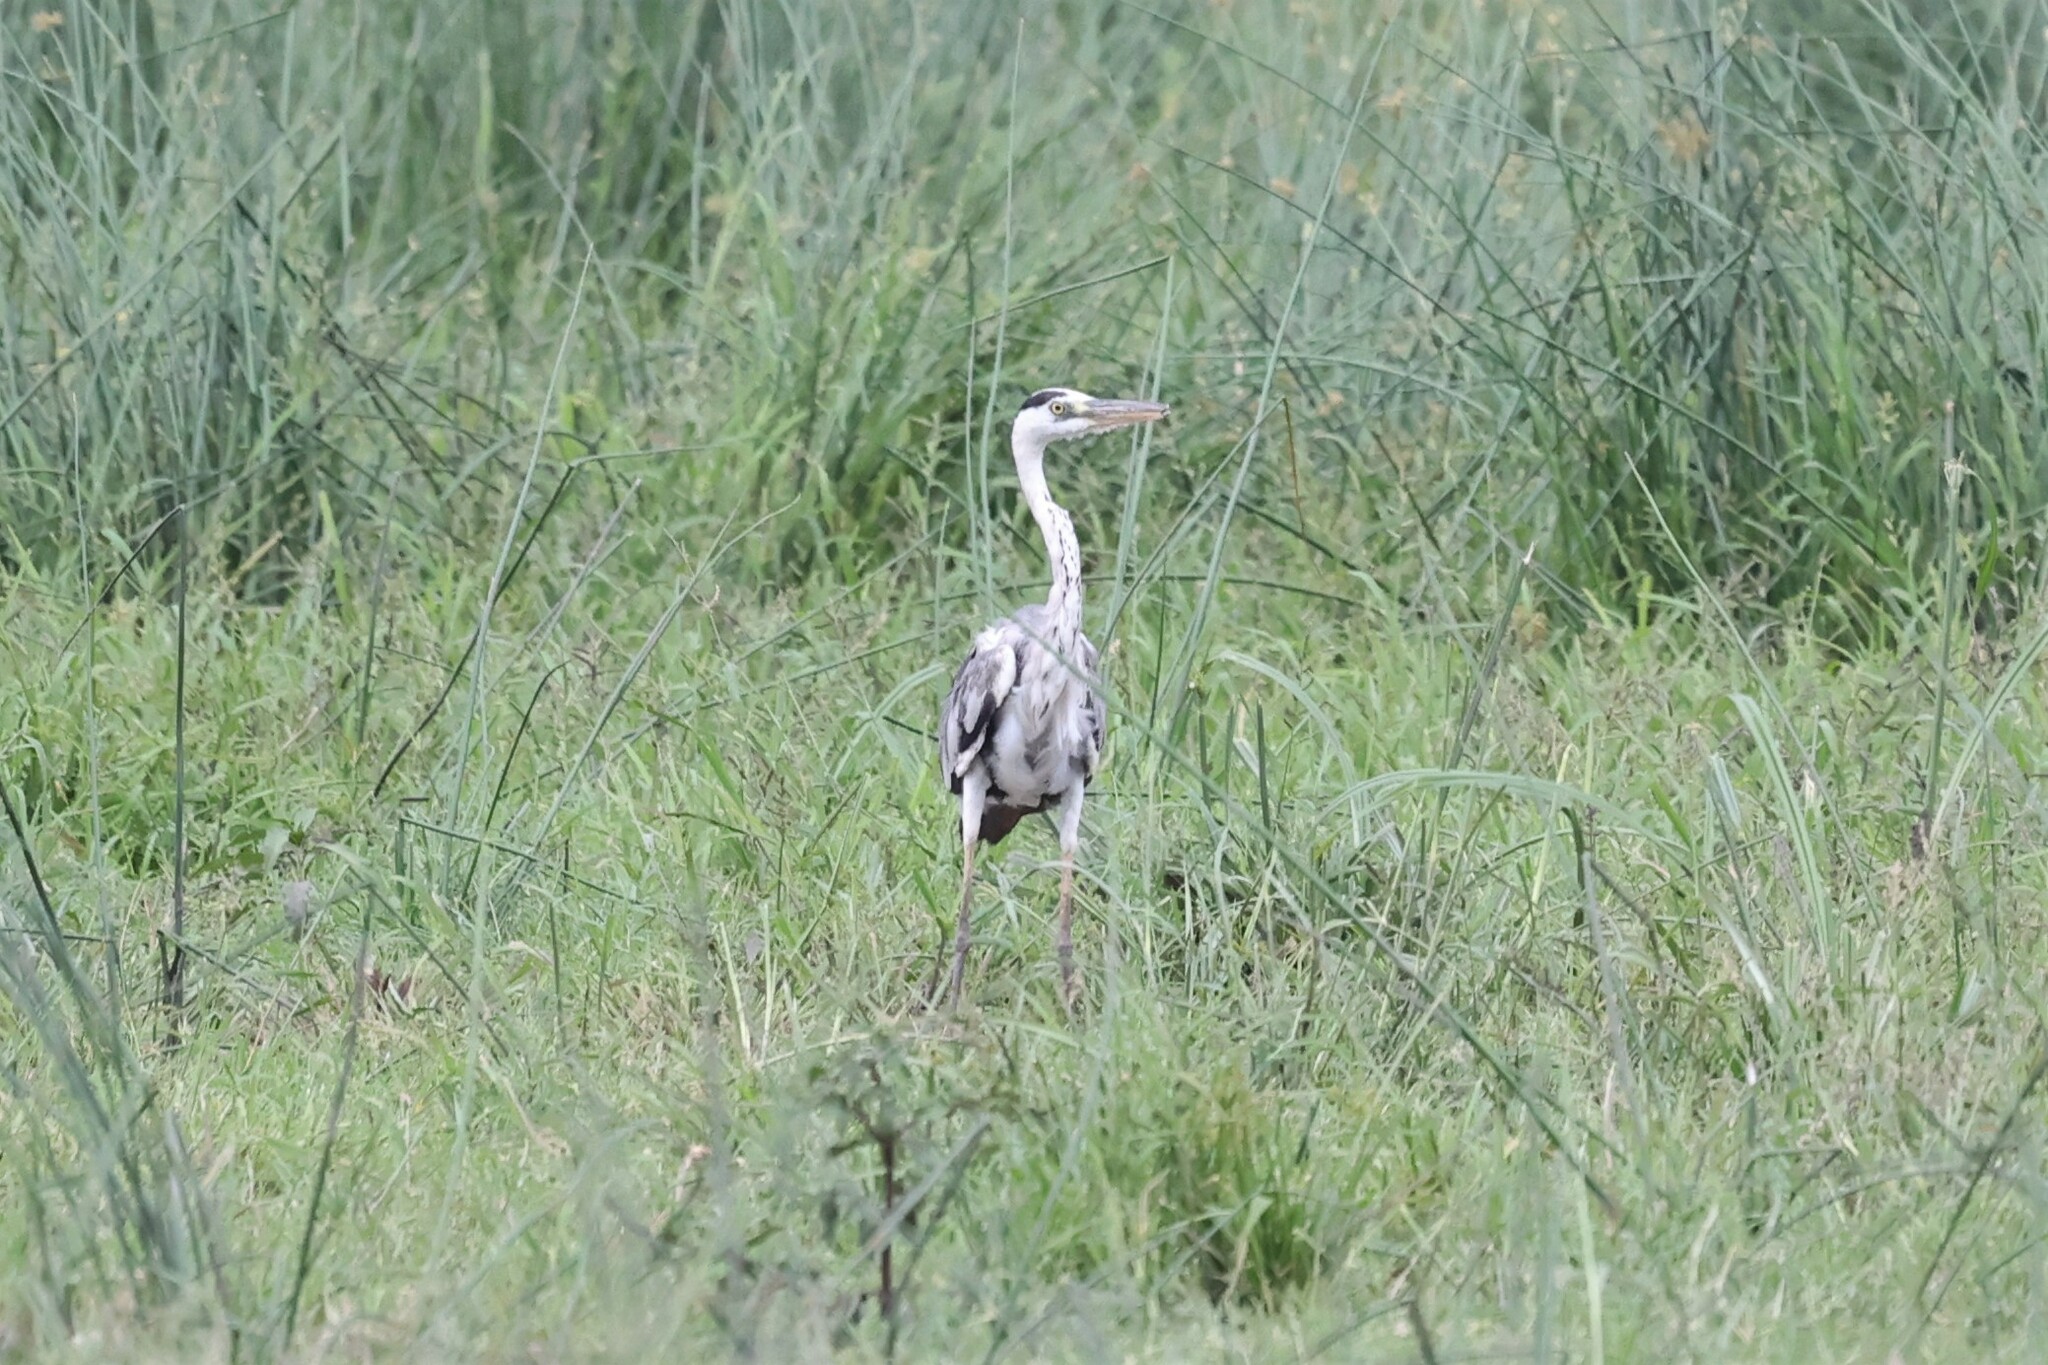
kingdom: Animalia
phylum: Chordata
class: Aves
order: Pelecaniformes
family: Ardeidae
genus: Ardea
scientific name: Ardea cinerea
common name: Grey heron
